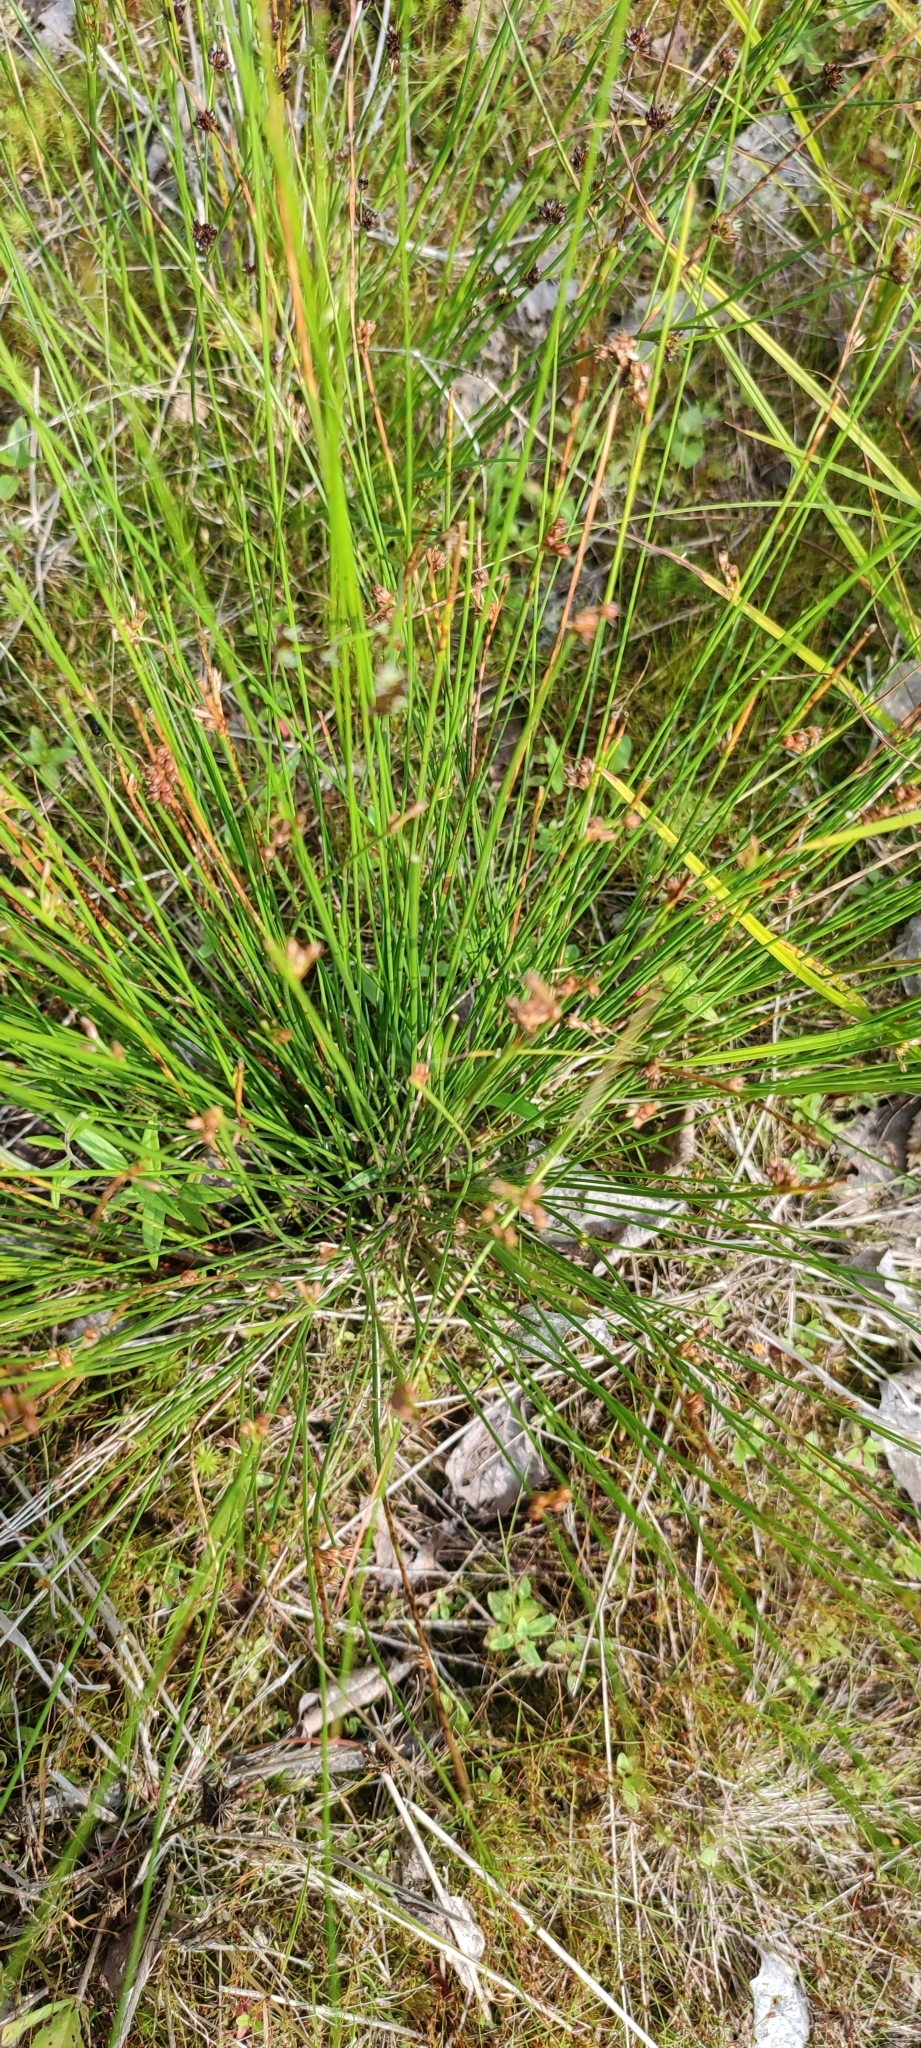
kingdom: Plantae
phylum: Tracheophyta
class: Liliopsida
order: Poales
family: Juncaceae
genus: Juncus
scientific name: Juncus filiformis
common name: Thread rush
